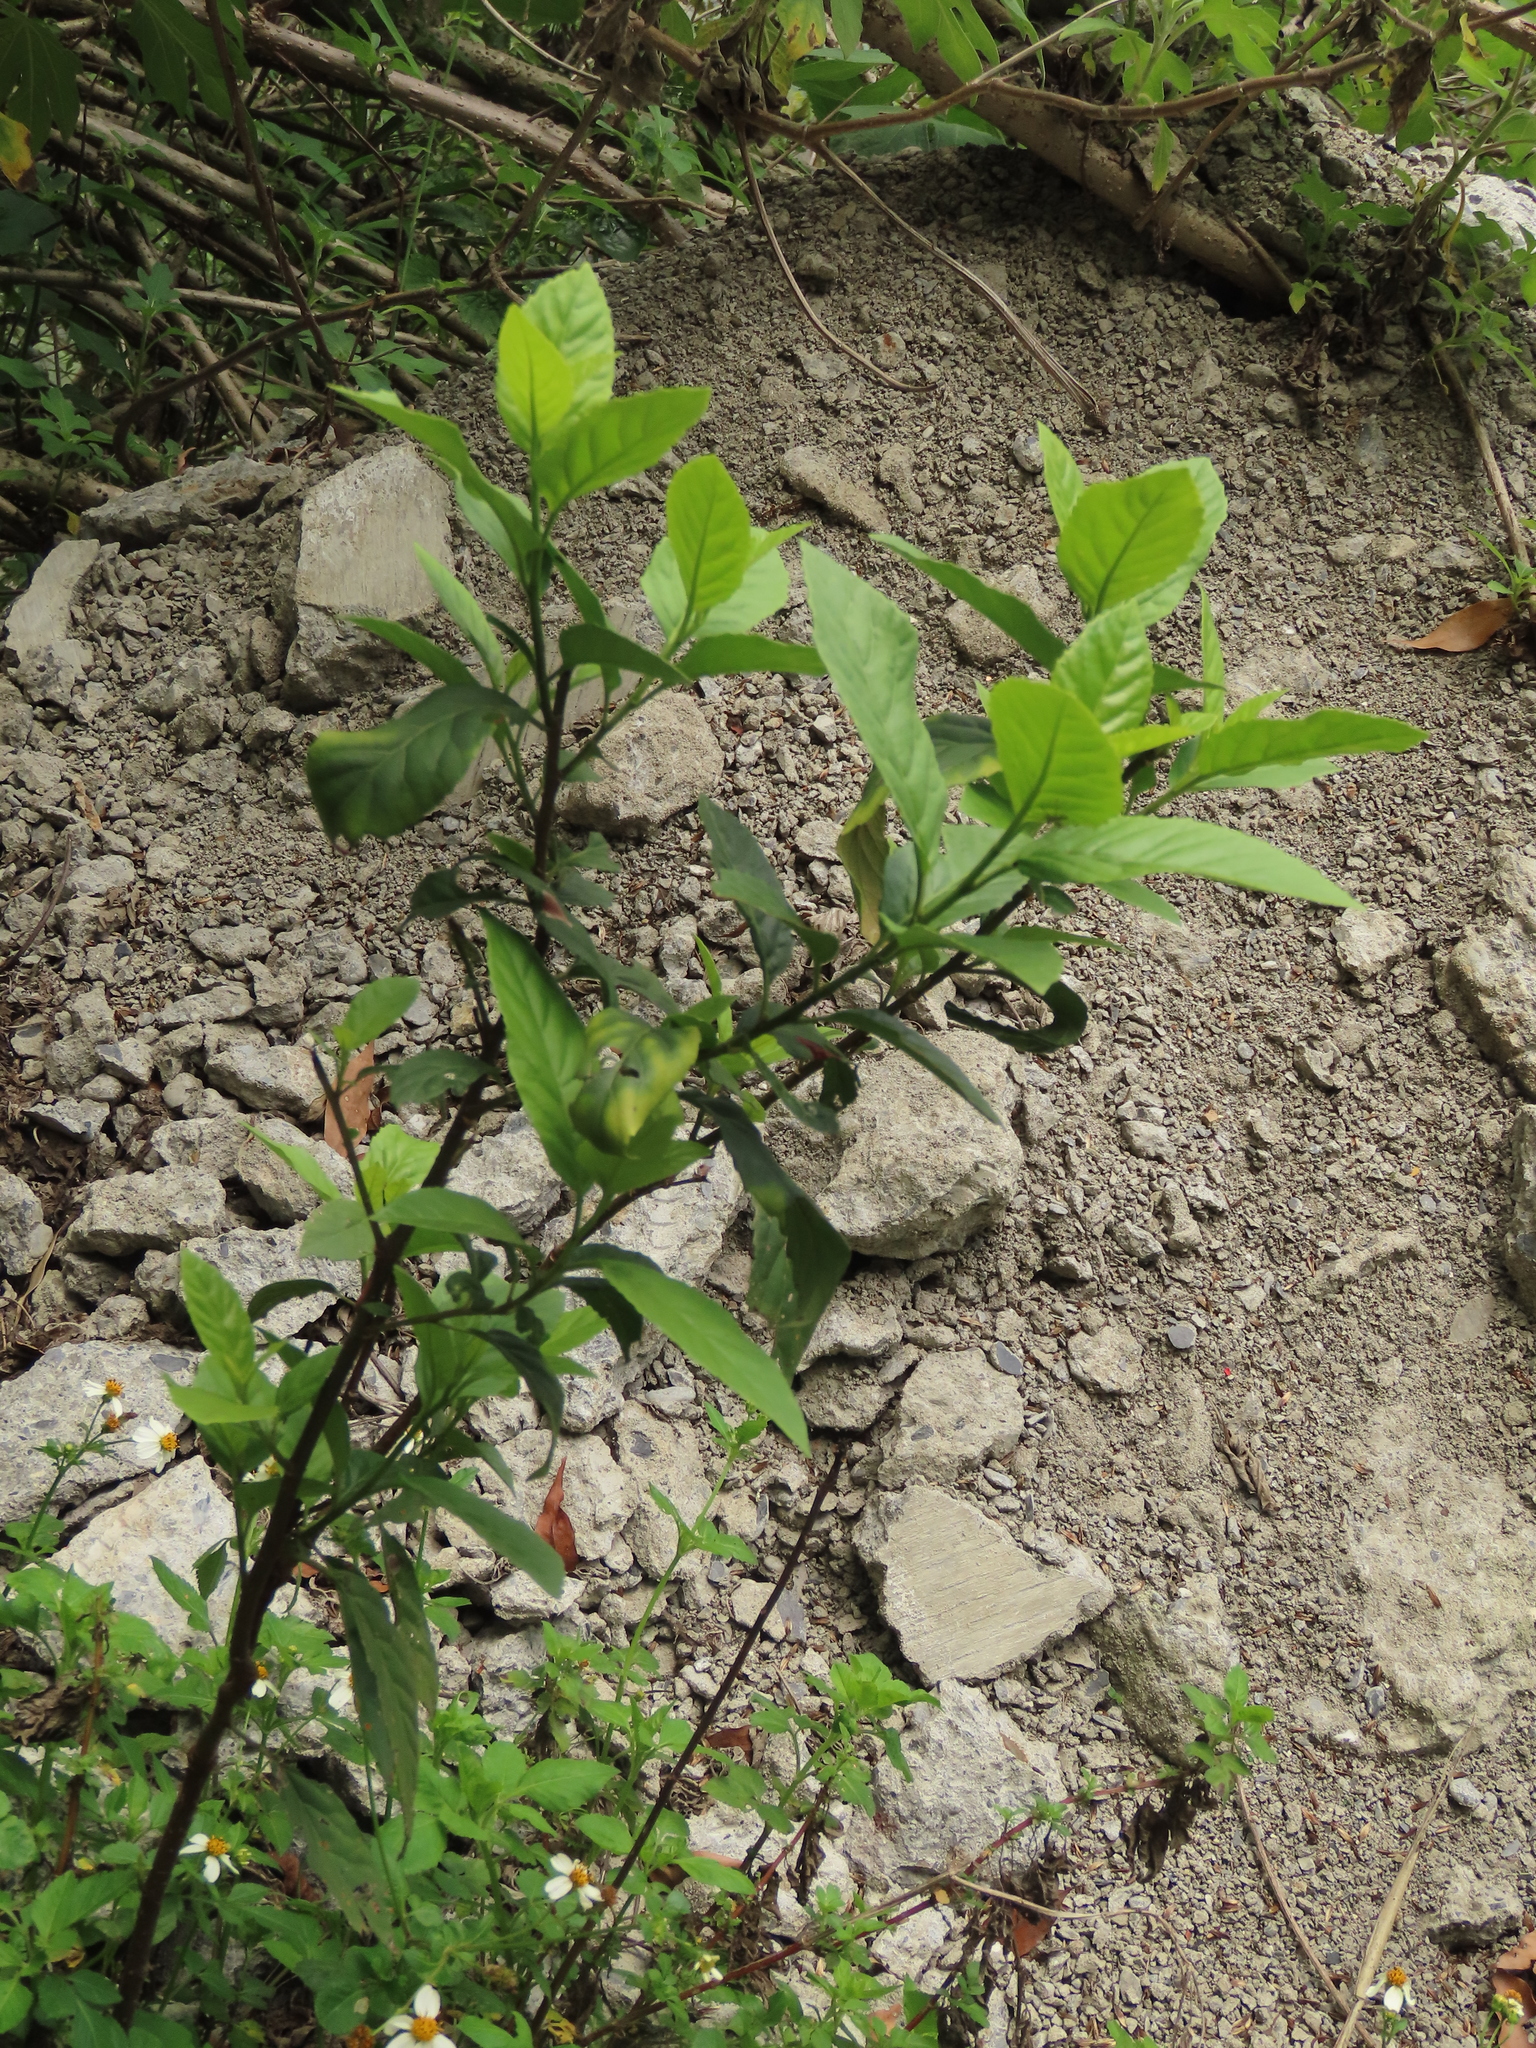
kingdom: Plantae
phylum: Tracheophyta
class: Magnoliopsida
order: Ericales
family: Primulaceae
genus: Maesa
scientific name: Maesa perlaria
